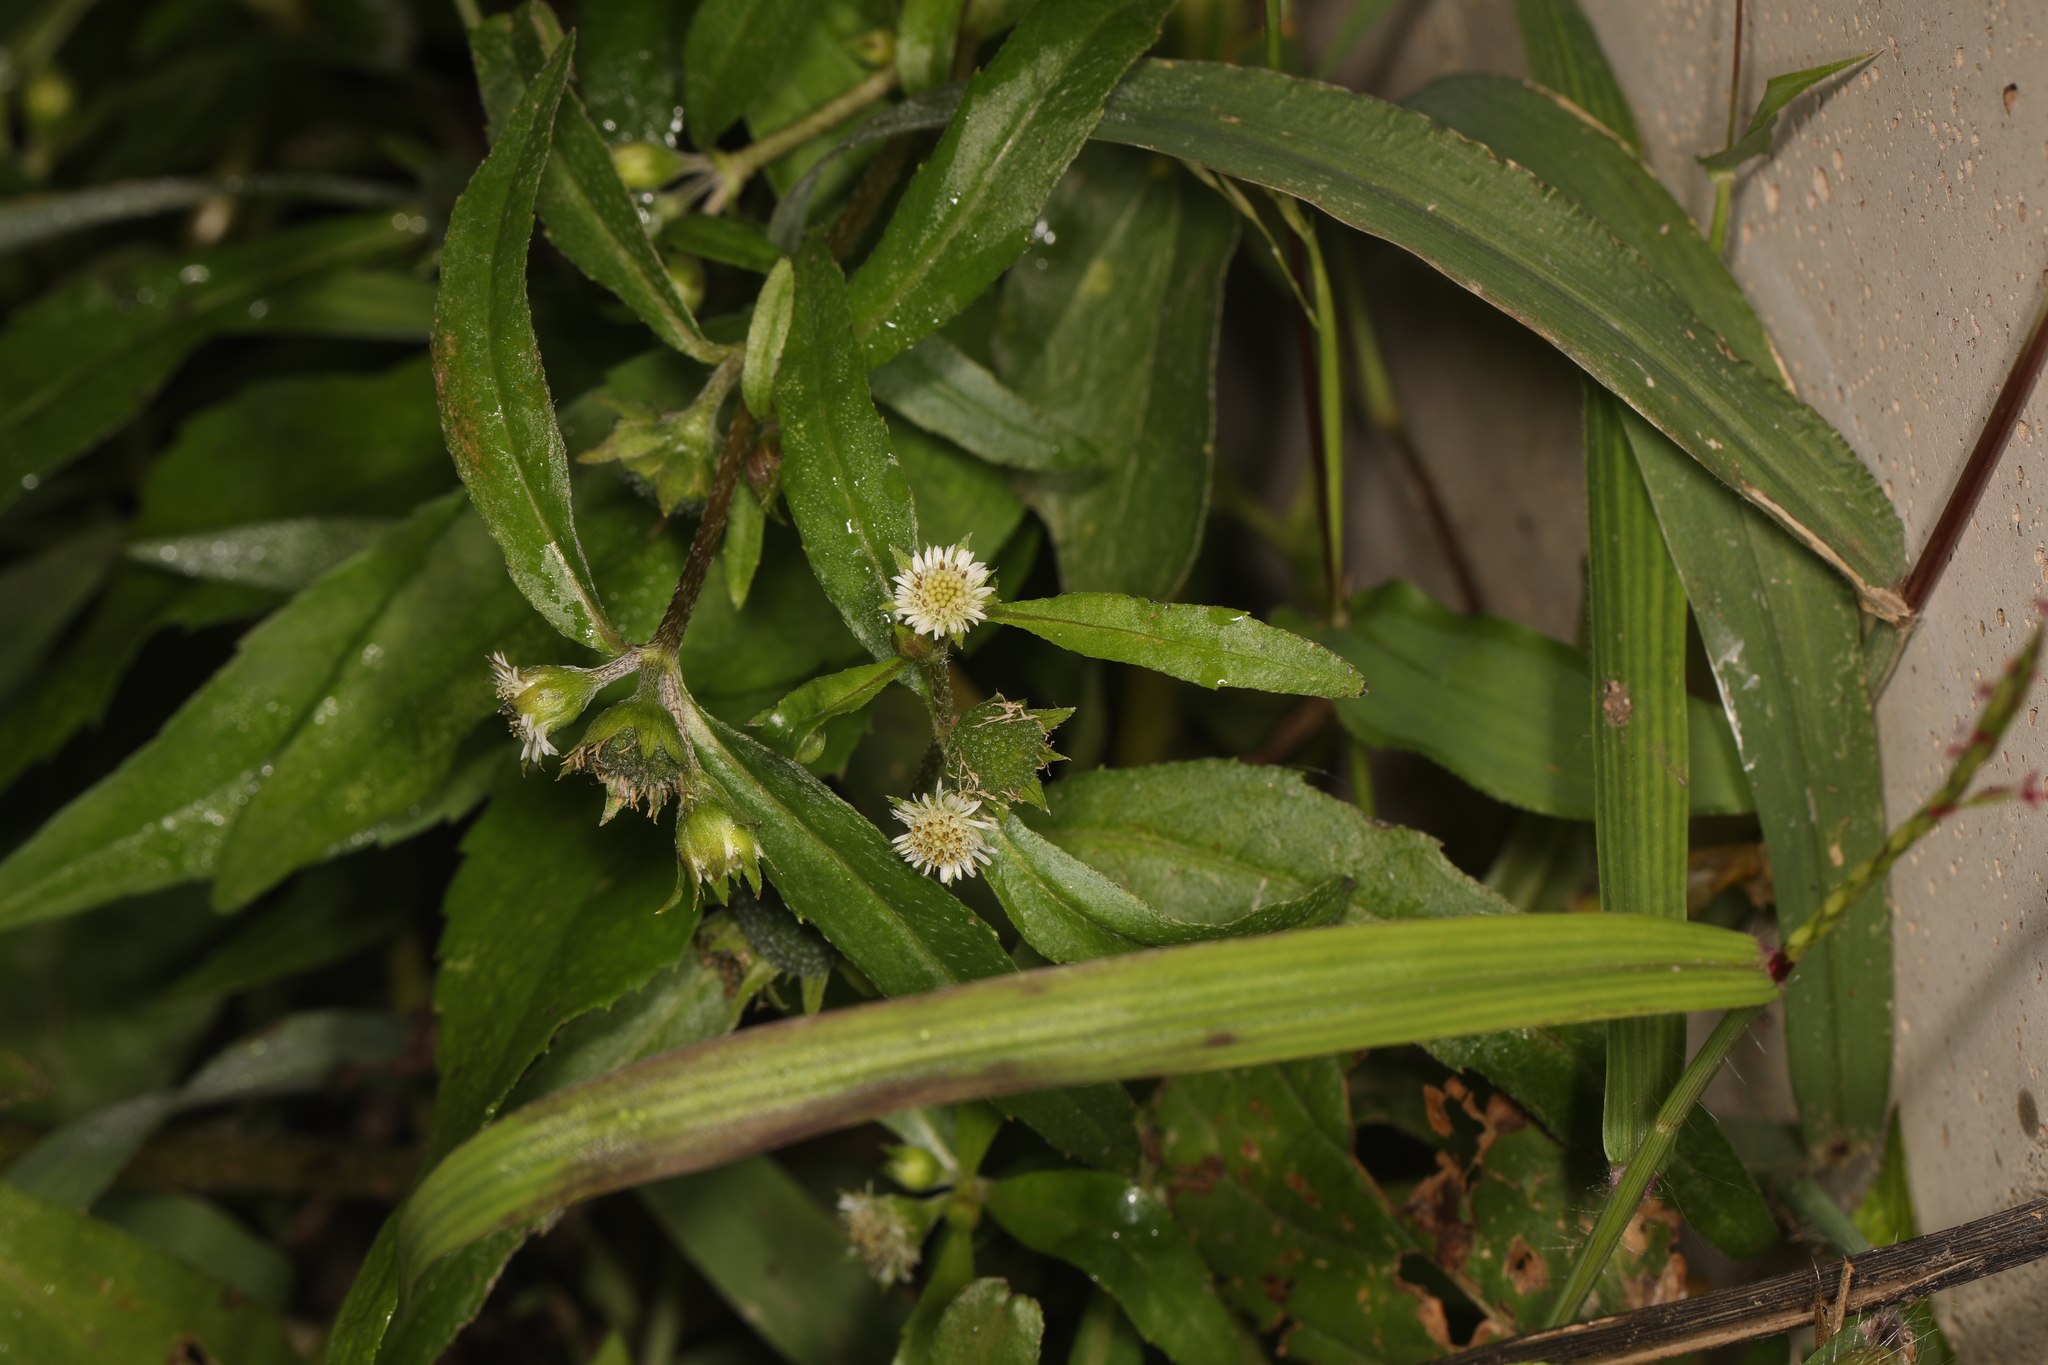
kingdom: Plantae
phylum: Tracheophyta
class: Magnoliopsida
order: Asterales
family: Asteraceae
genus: Eclipta
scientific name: Eclipta prostrata
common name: False daisy
